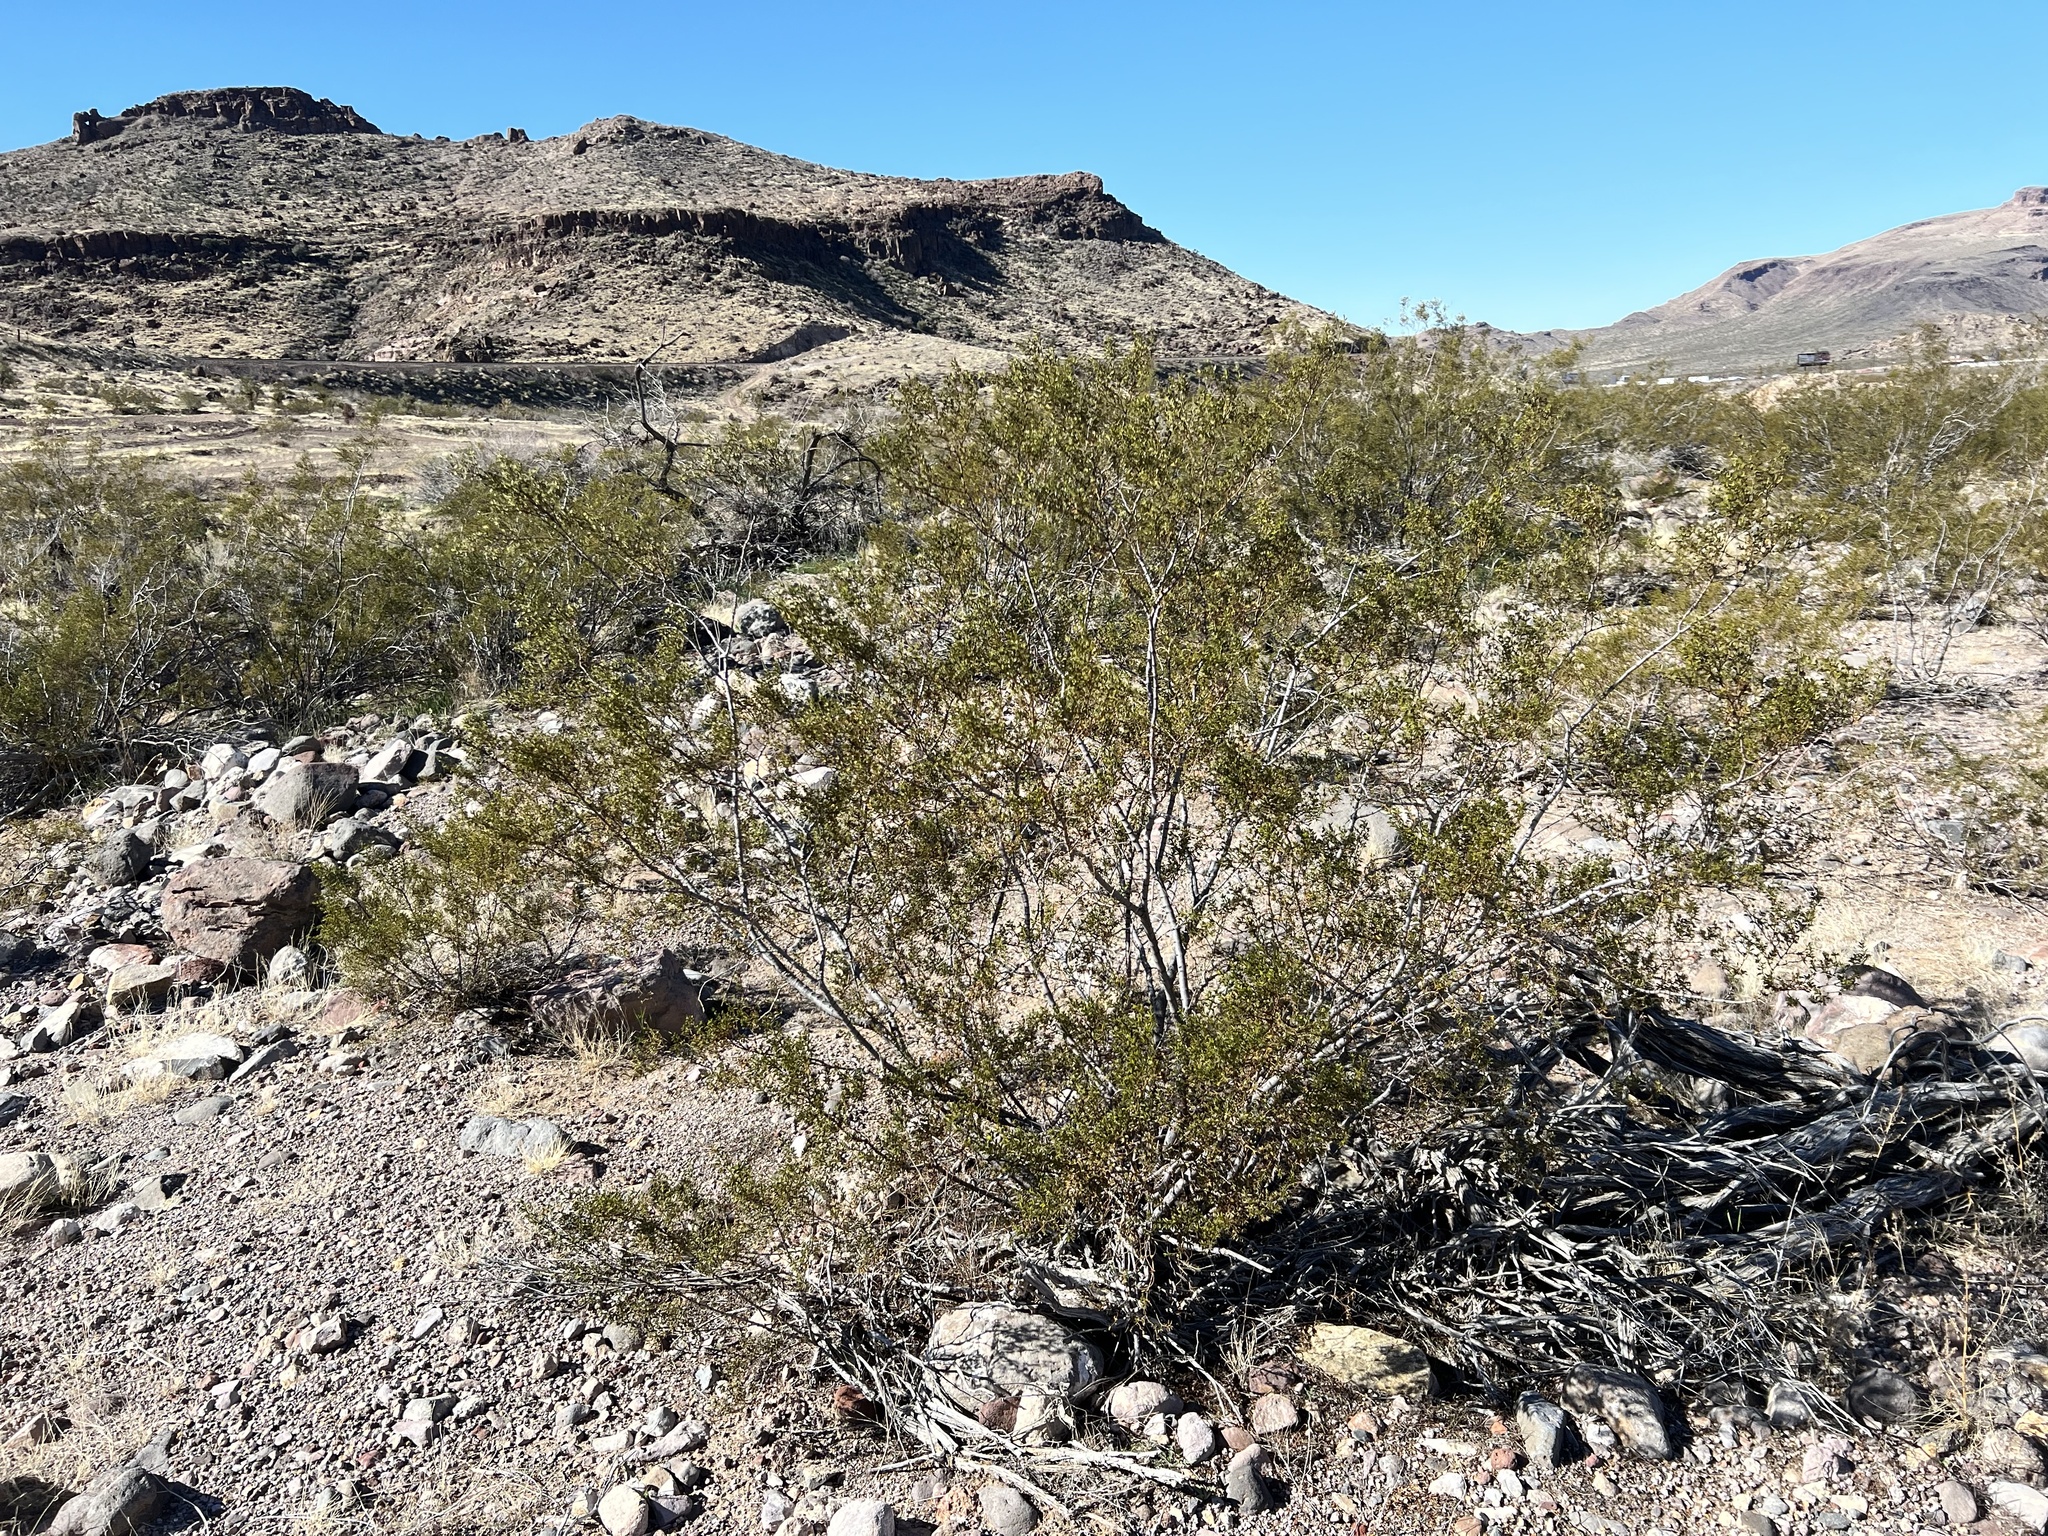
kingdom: Plantae
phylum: Tracheophyta
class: Magnoliopsida
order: Zygophyllales
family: Zygophyllaceae
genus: Larrea
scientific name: Larrea tridentata
